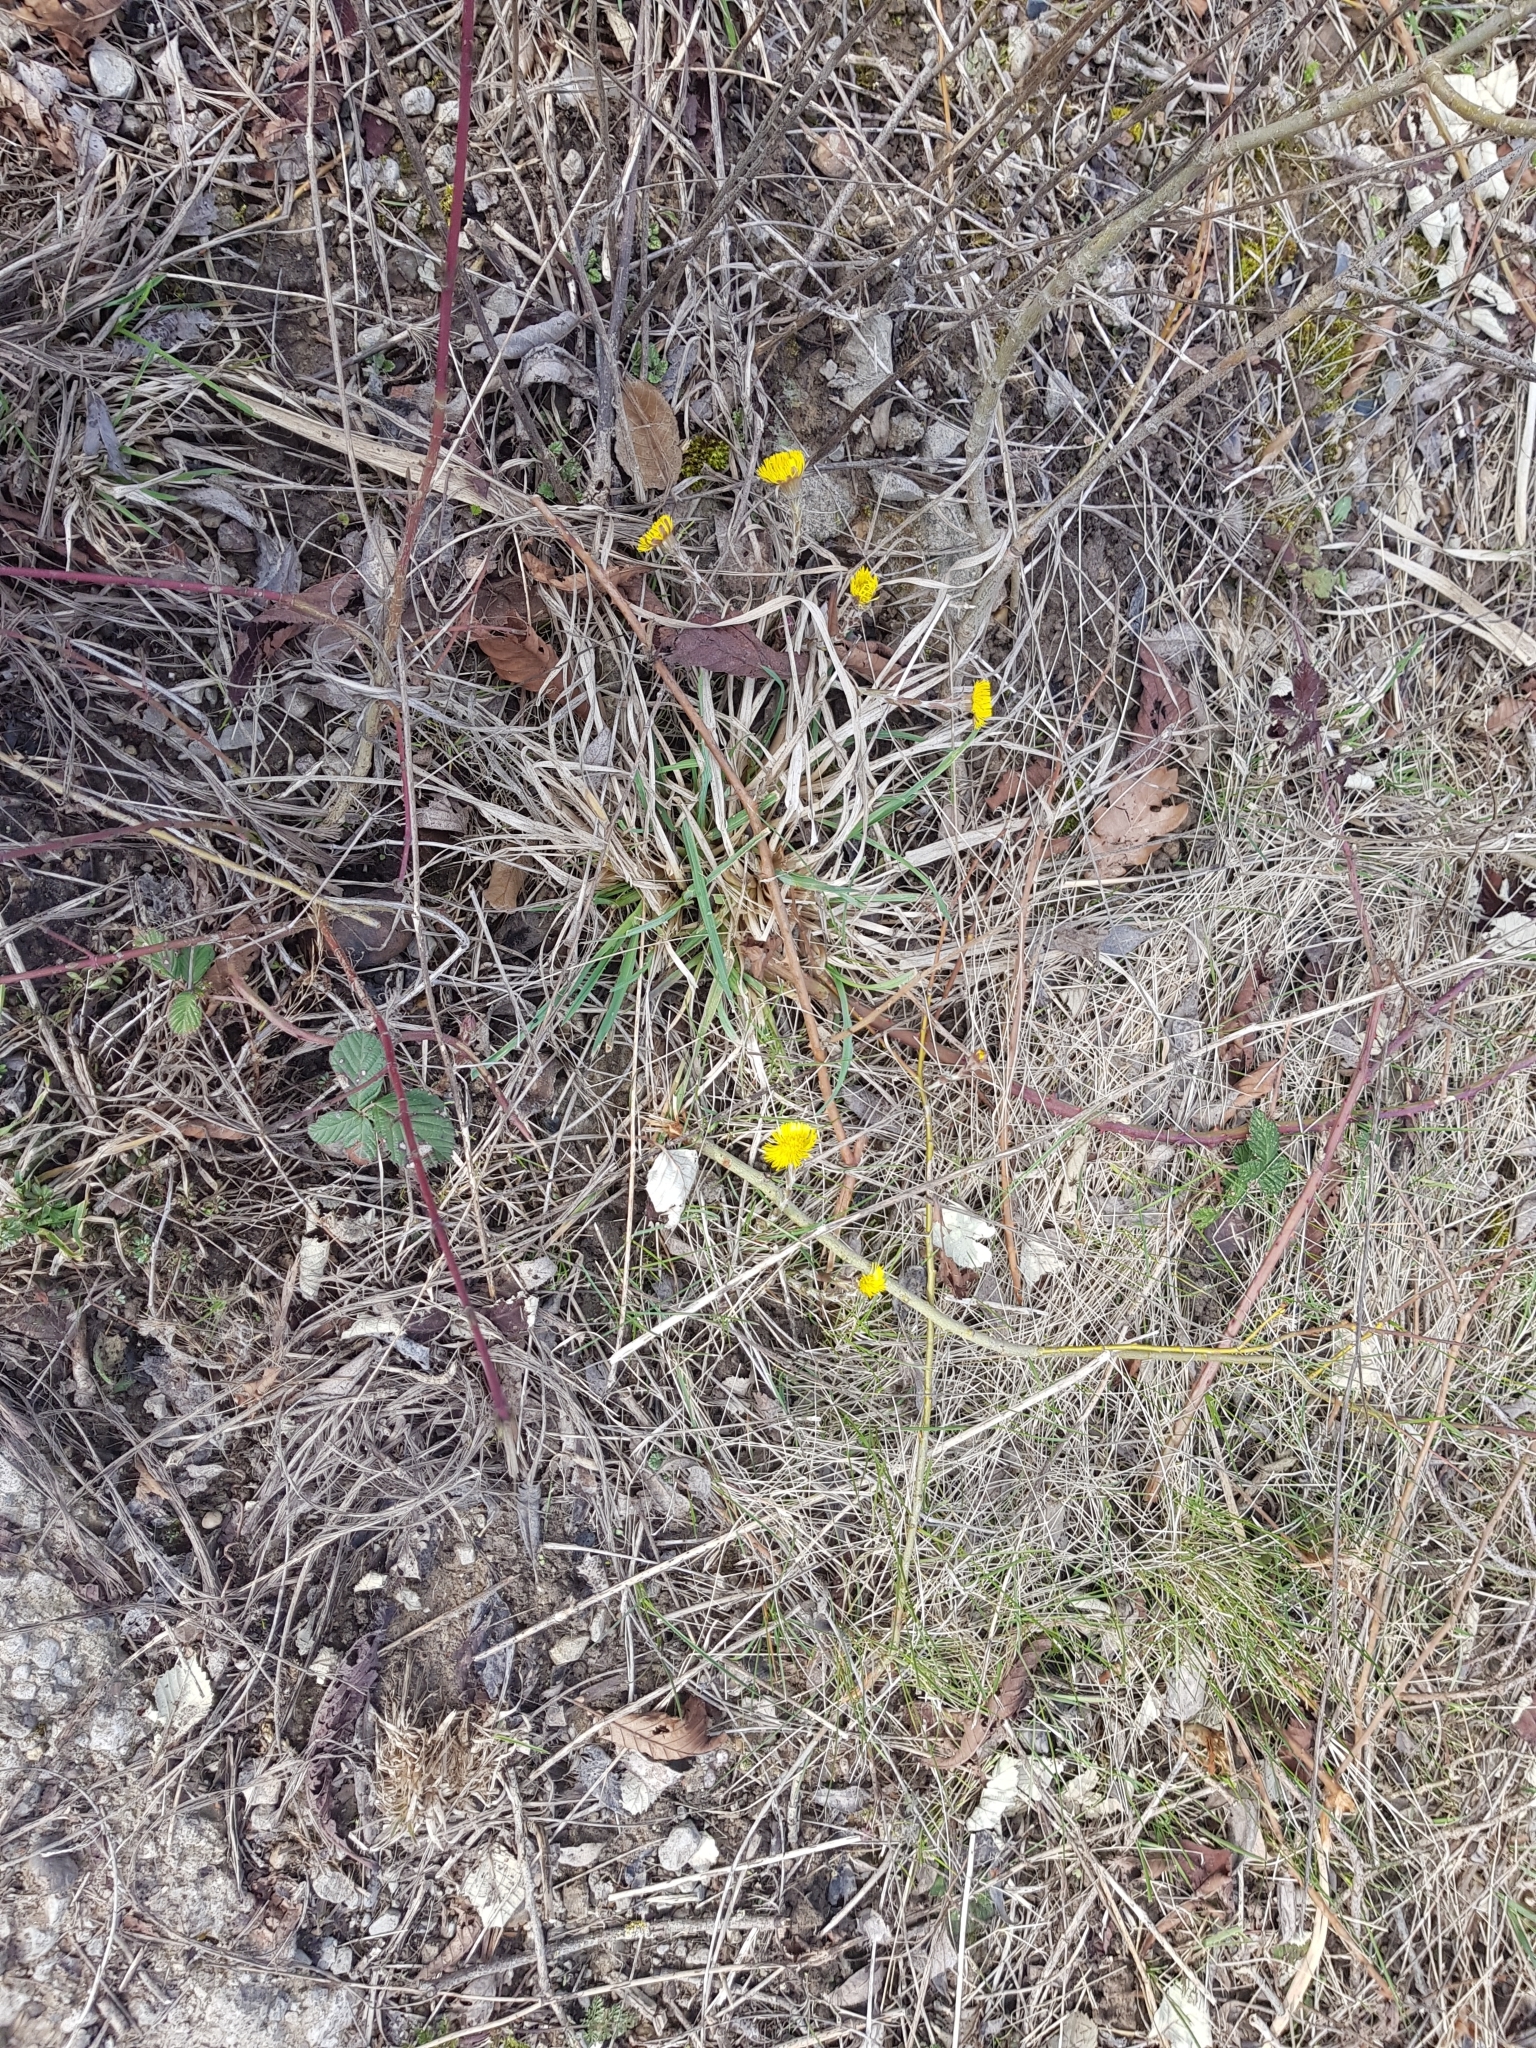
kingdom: Plantae
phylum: Tracheophyta
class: Magnoliopsida
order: Asterales
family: Asteraceae
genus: Tussilago
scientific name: Tussilago farfara
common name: Coltsfoot
